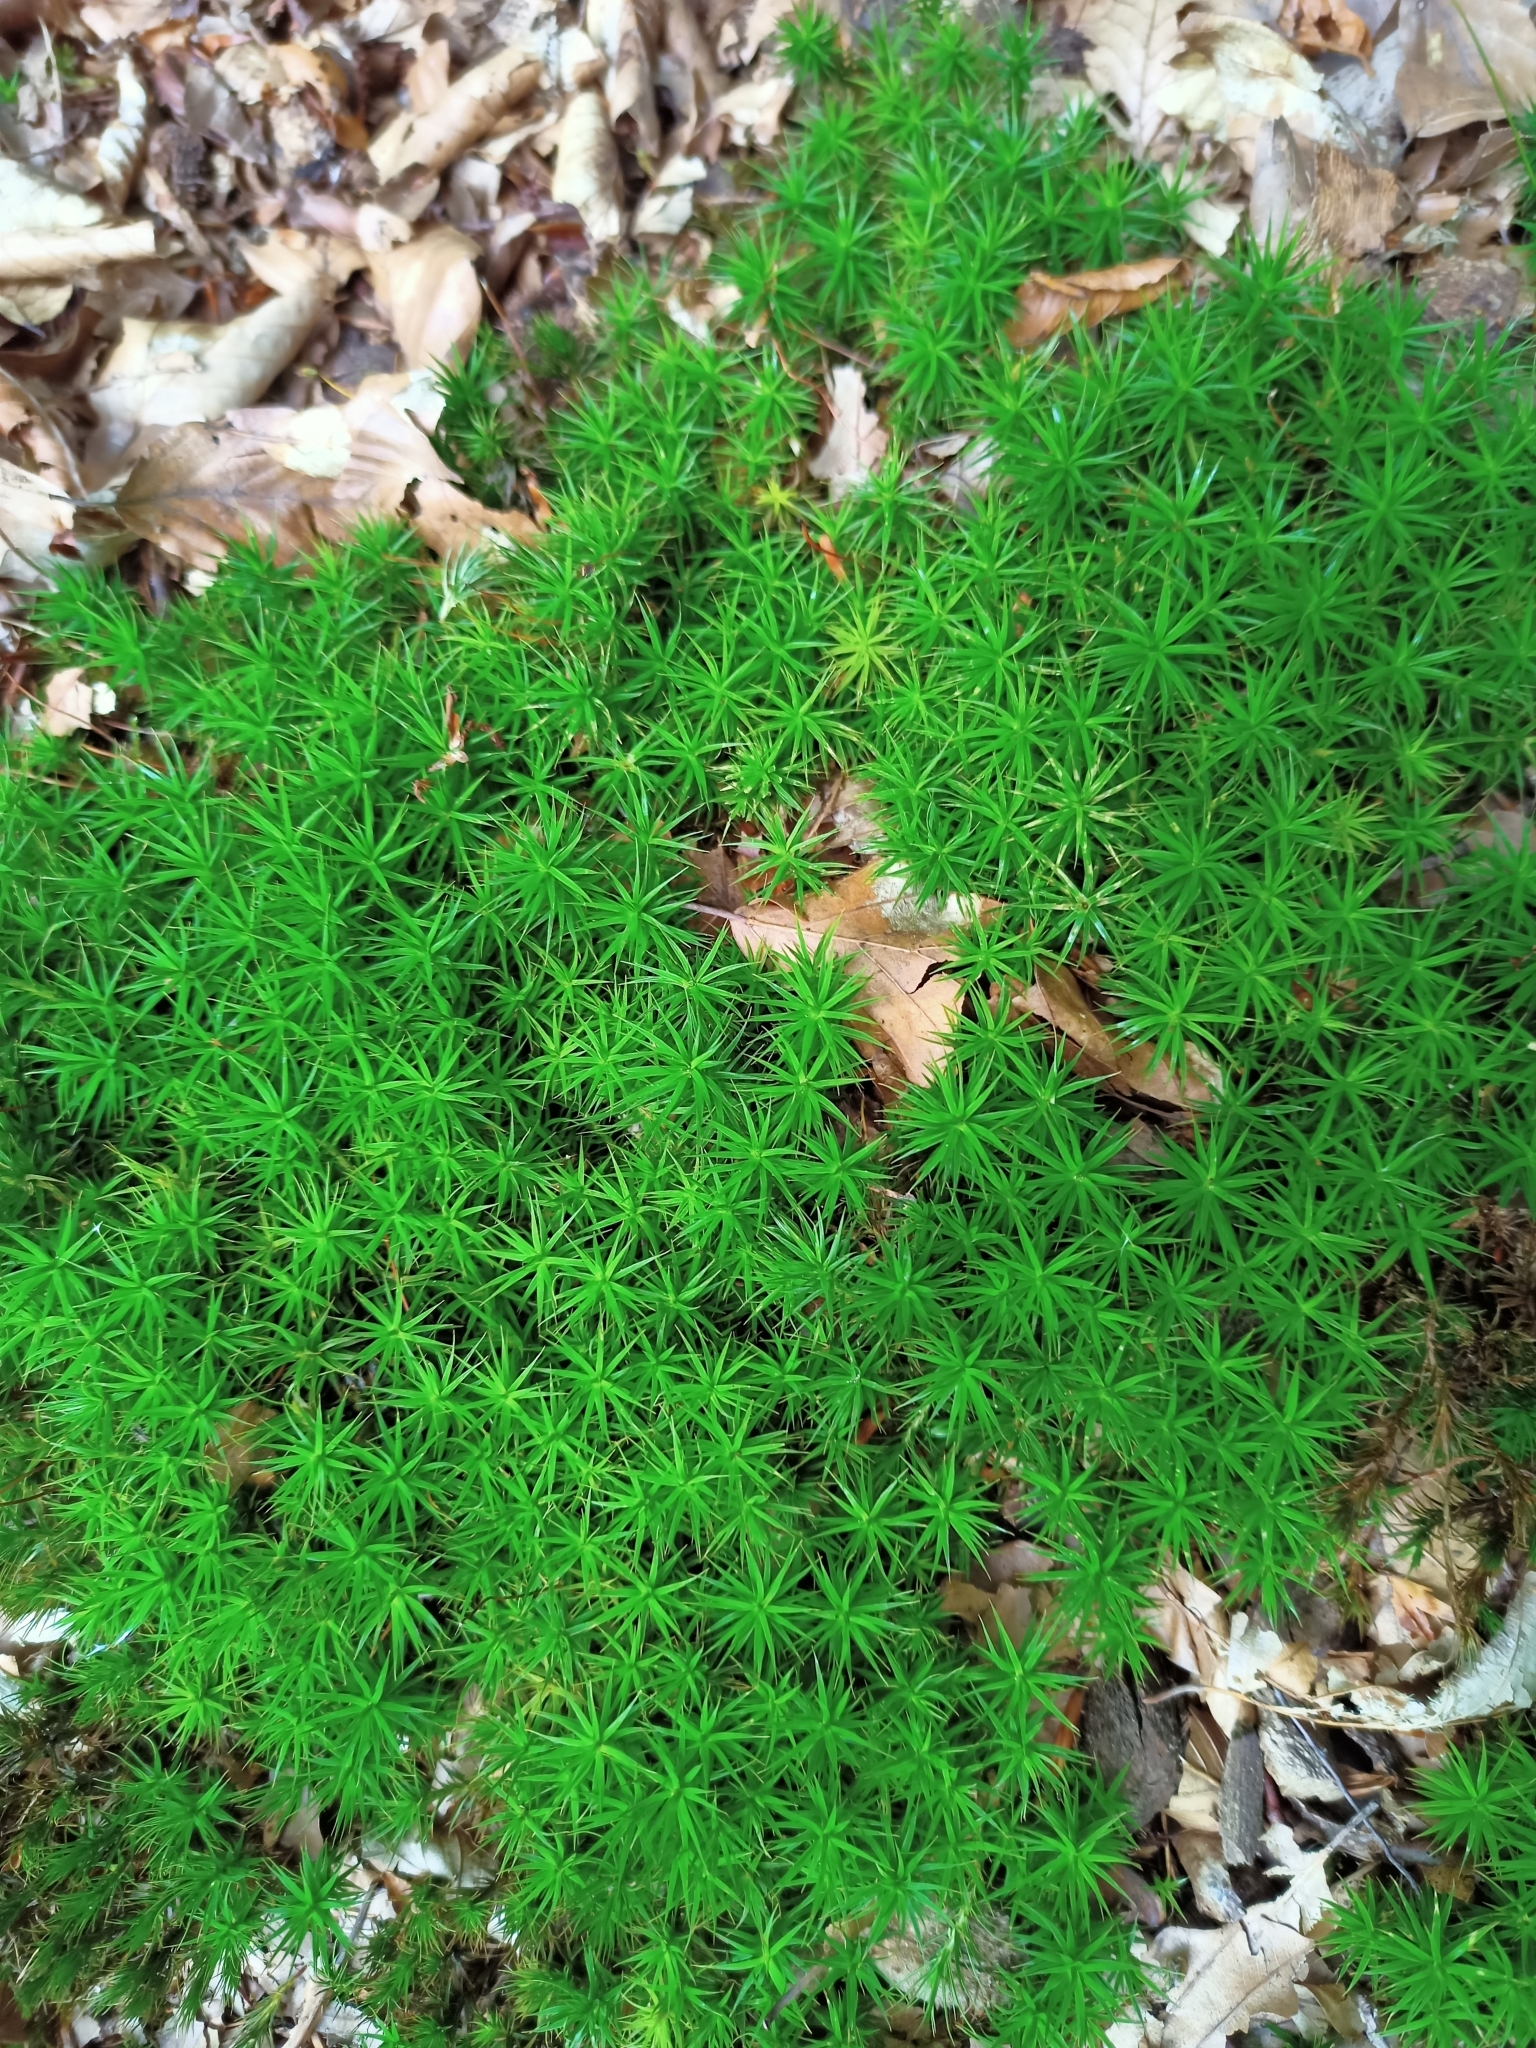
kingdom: Plantae
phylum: Bryophyta
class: Polytrichopsida
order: Polytrichales
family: Polytrichaceae
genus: Polytrichum
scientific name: Polytrichum formosum
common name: Bank haircap moss
